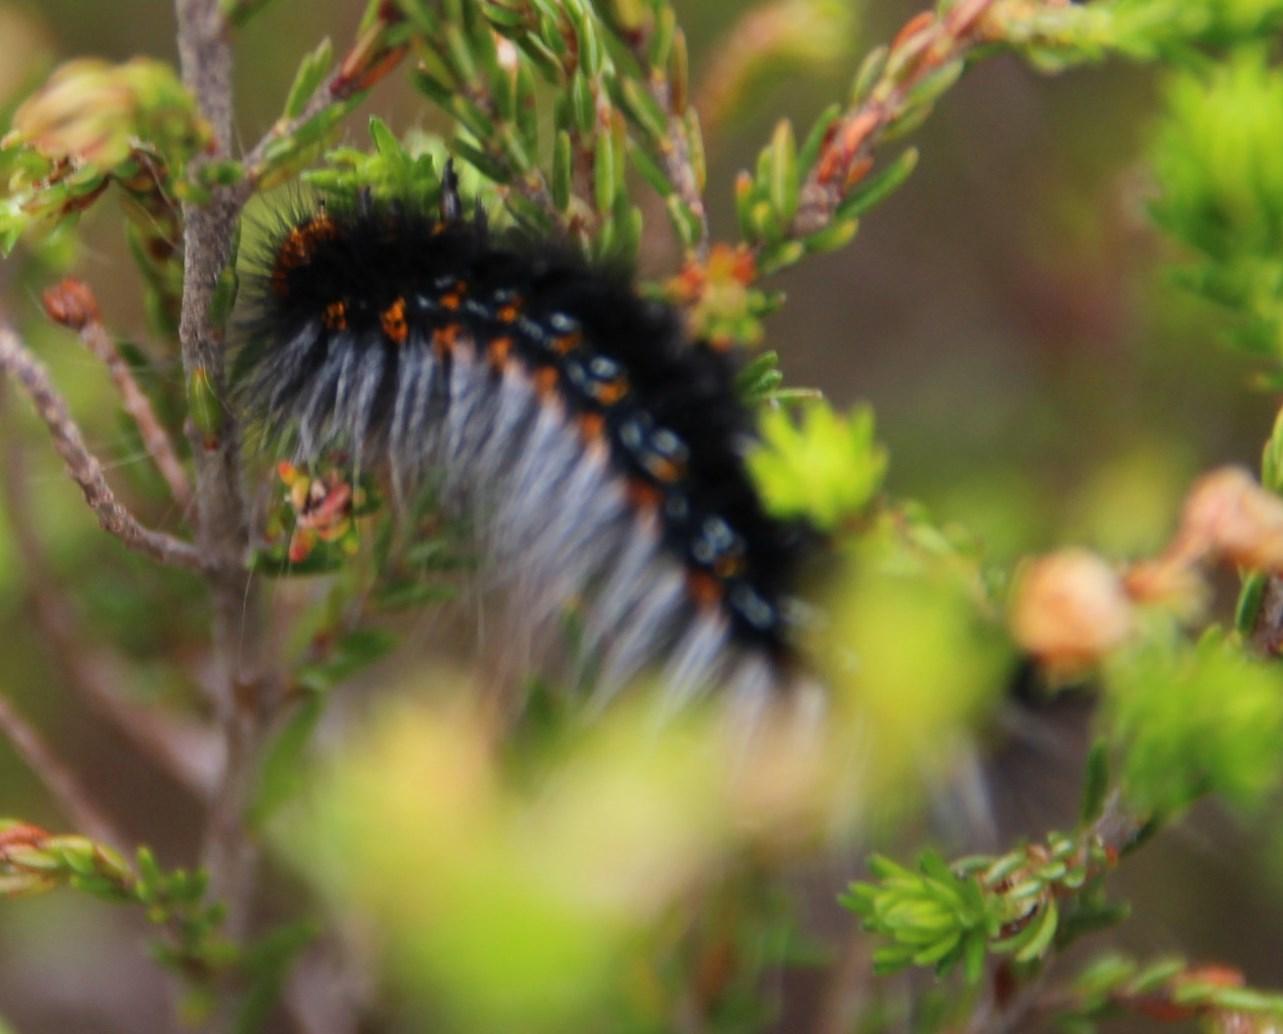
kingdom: Animalia
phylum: Arthropoda
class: Insecta
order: Lepidoptera
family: Lasiocampidae
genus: Mesocelis
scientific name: Mesocelis monticola
